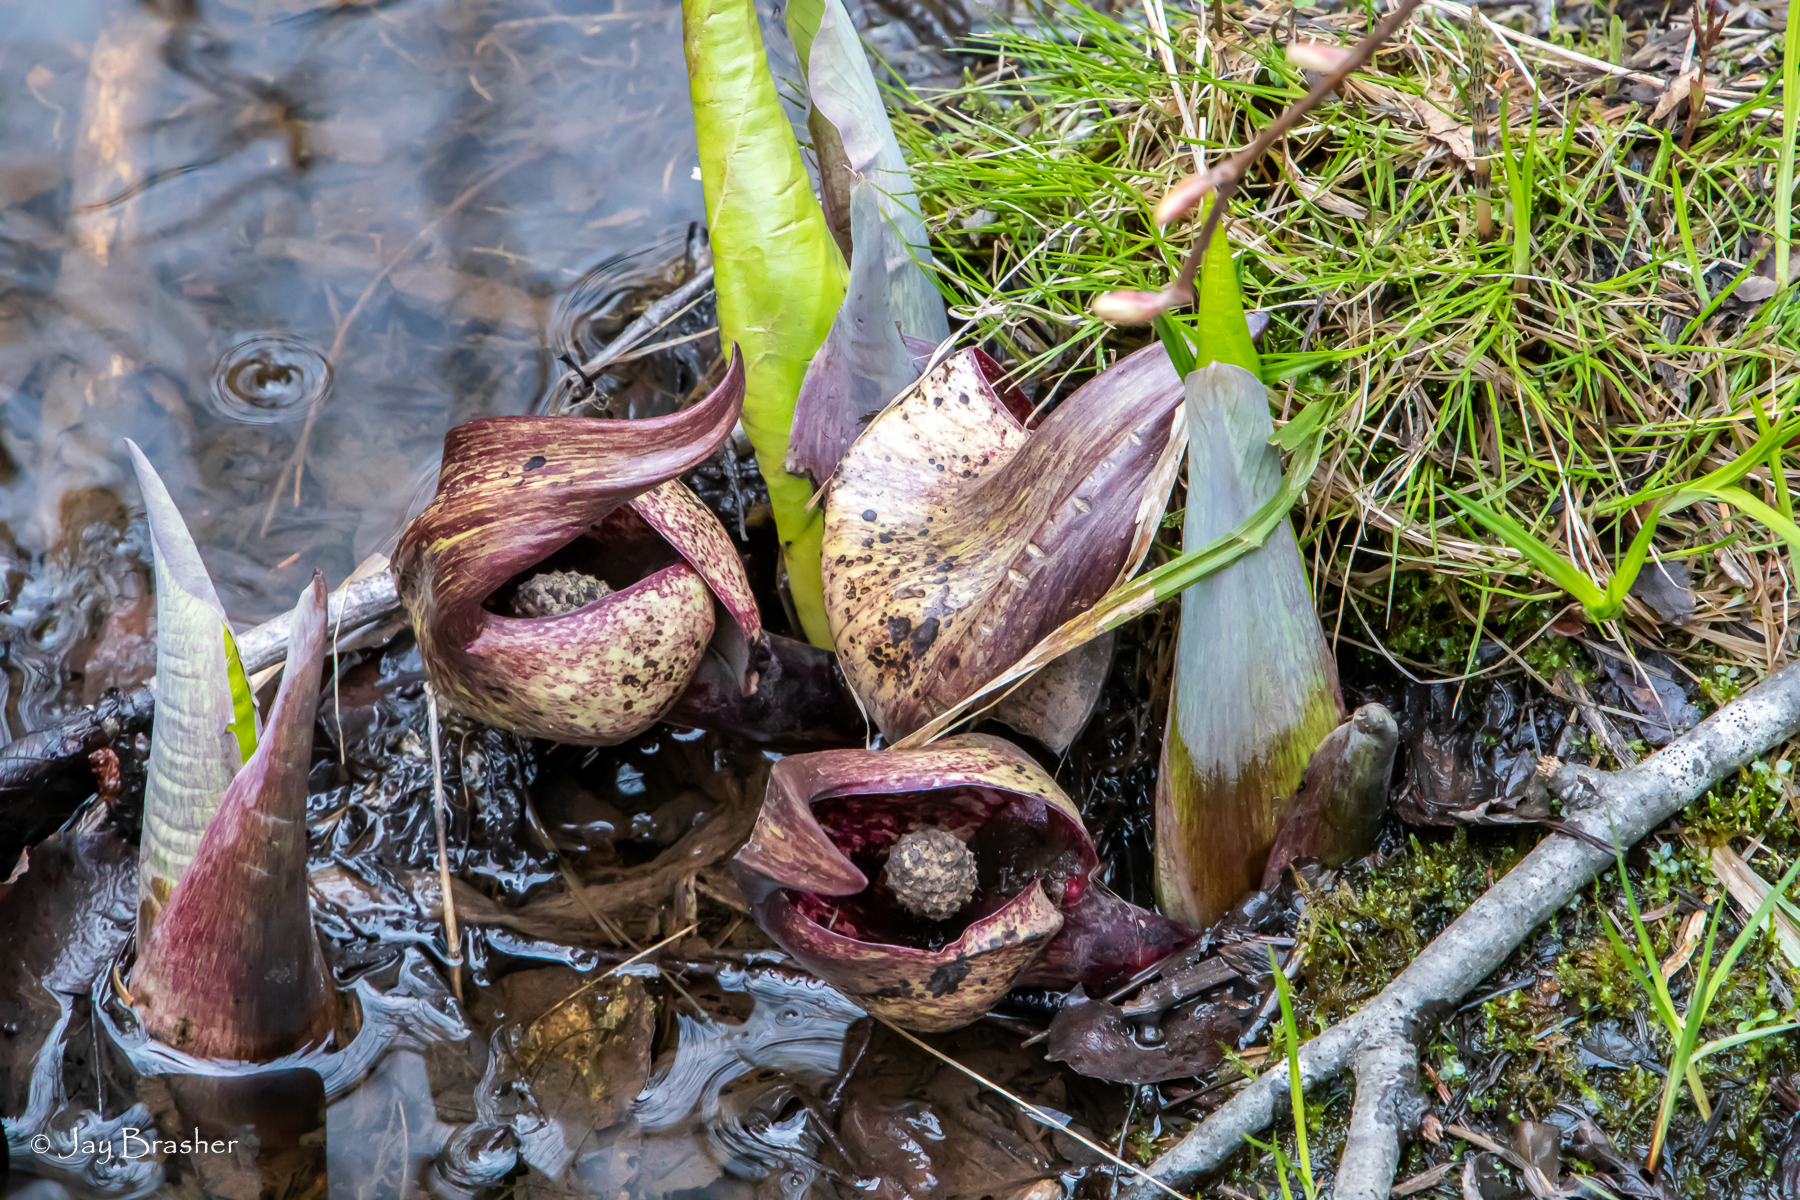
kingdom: Plantae
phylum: Tracheophyta
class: Liliopsida
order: Alismatales
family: Araceae
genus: Symplocarpus
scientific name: Symplocarpus foetidus
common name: Eastern skunk cabbage
